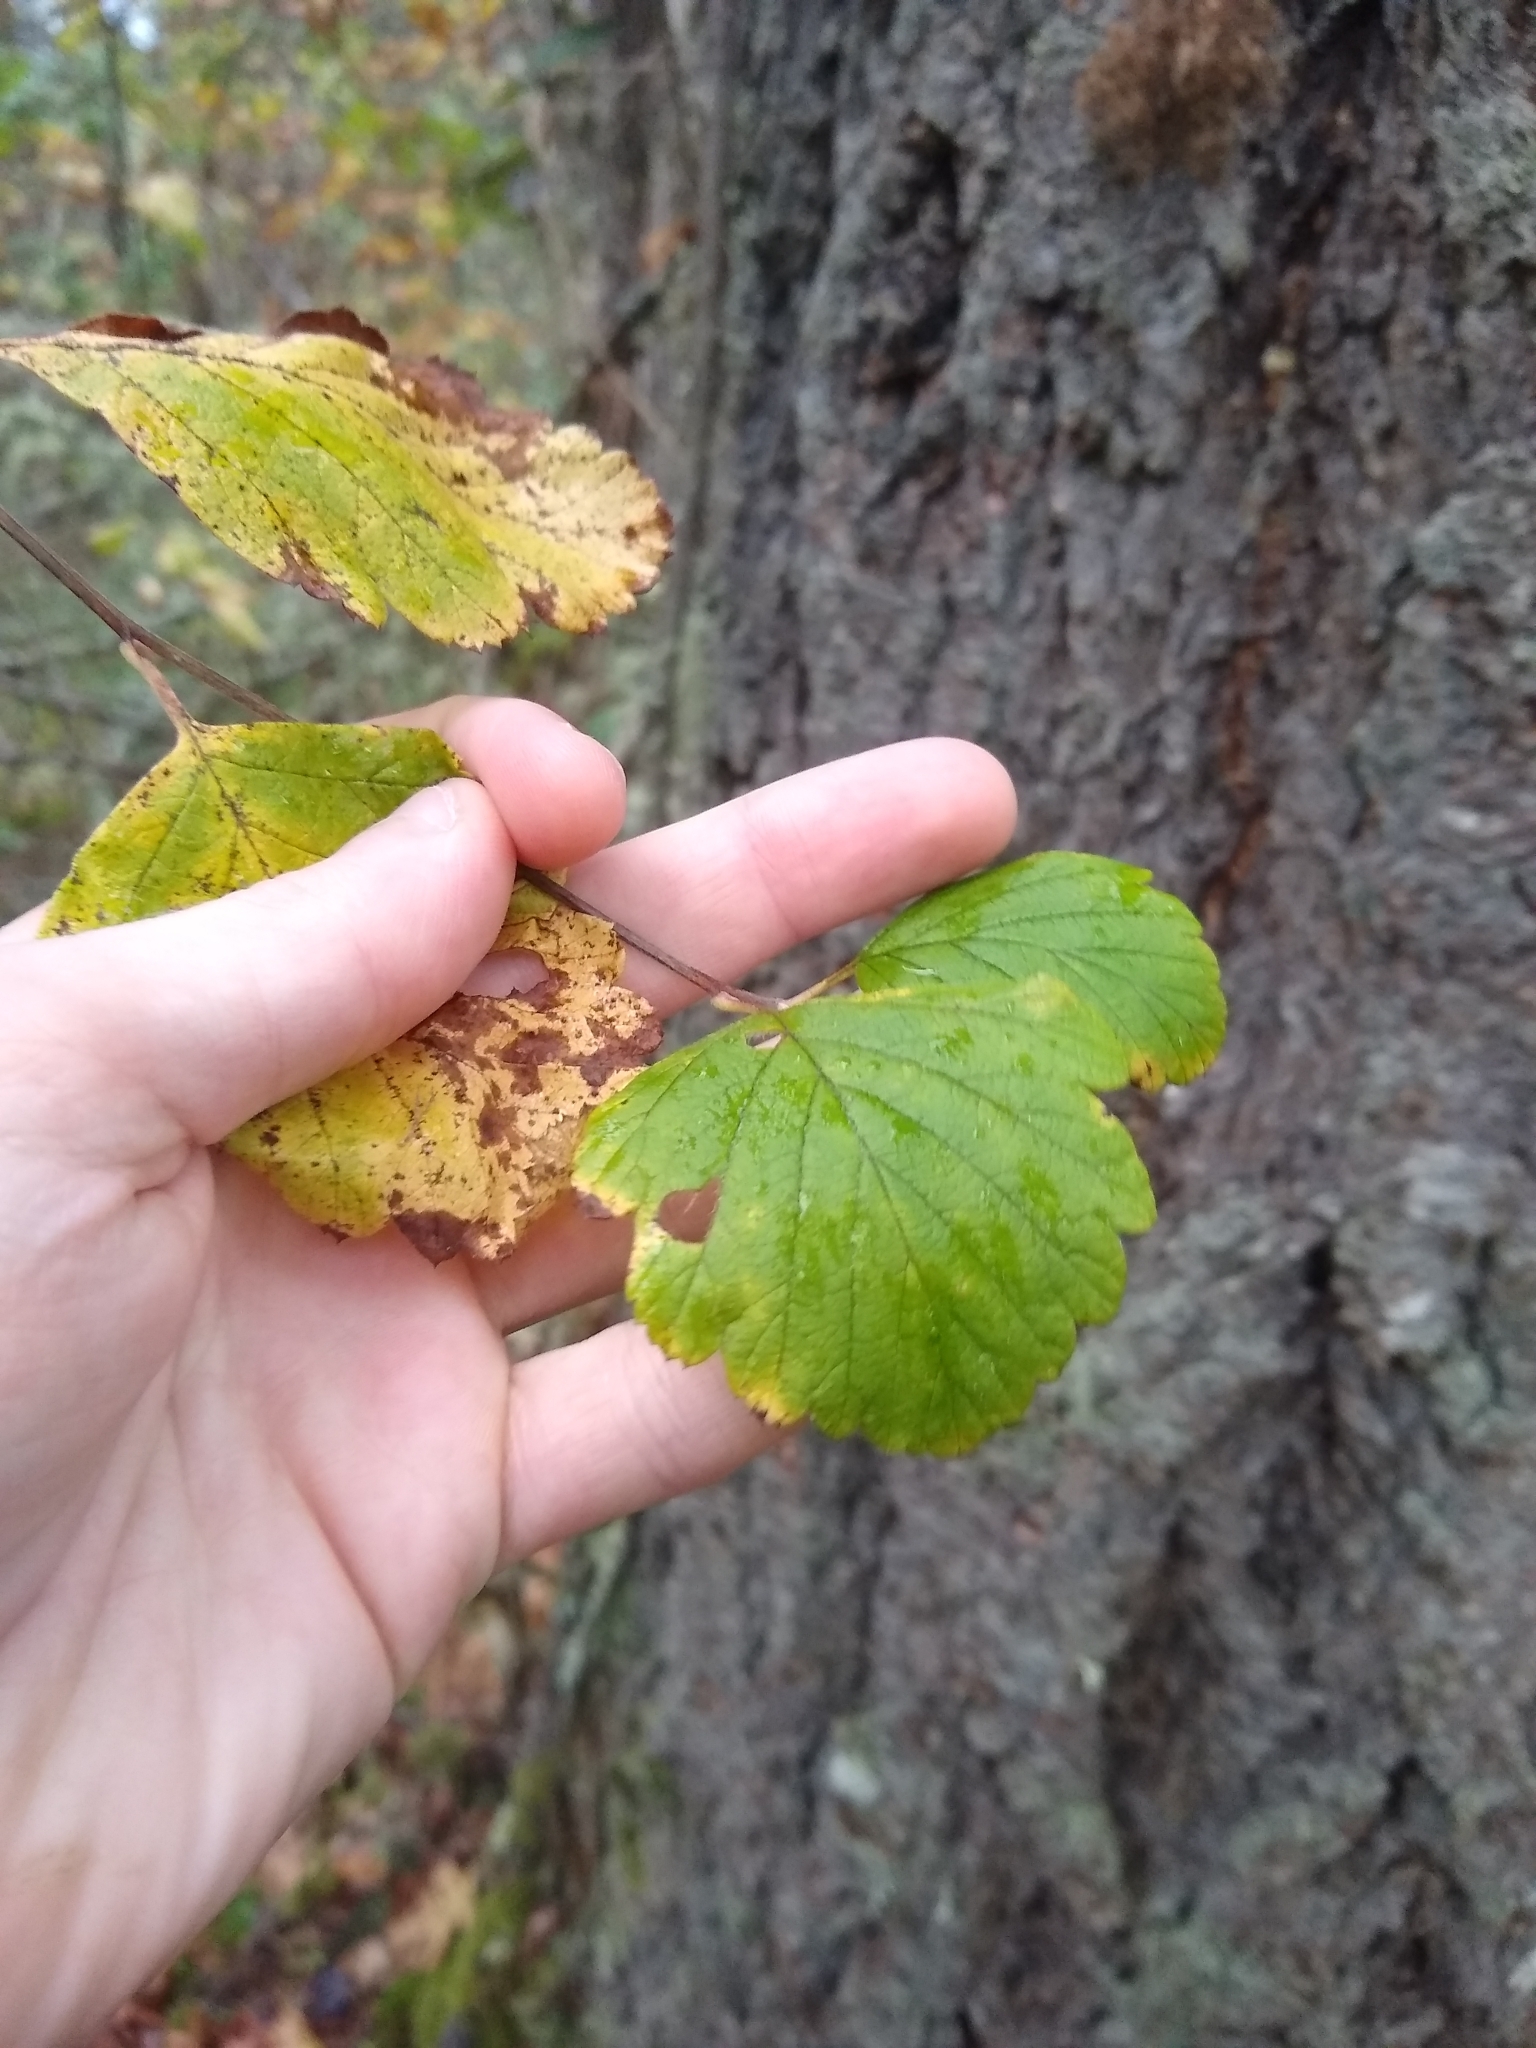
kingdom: Plantae
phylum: Tracheophyta
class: Magnoliopsida
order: Rosales
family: Rosaceae
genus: Holodiscus
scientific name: Holodiscus discolor
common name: Oceanspray
